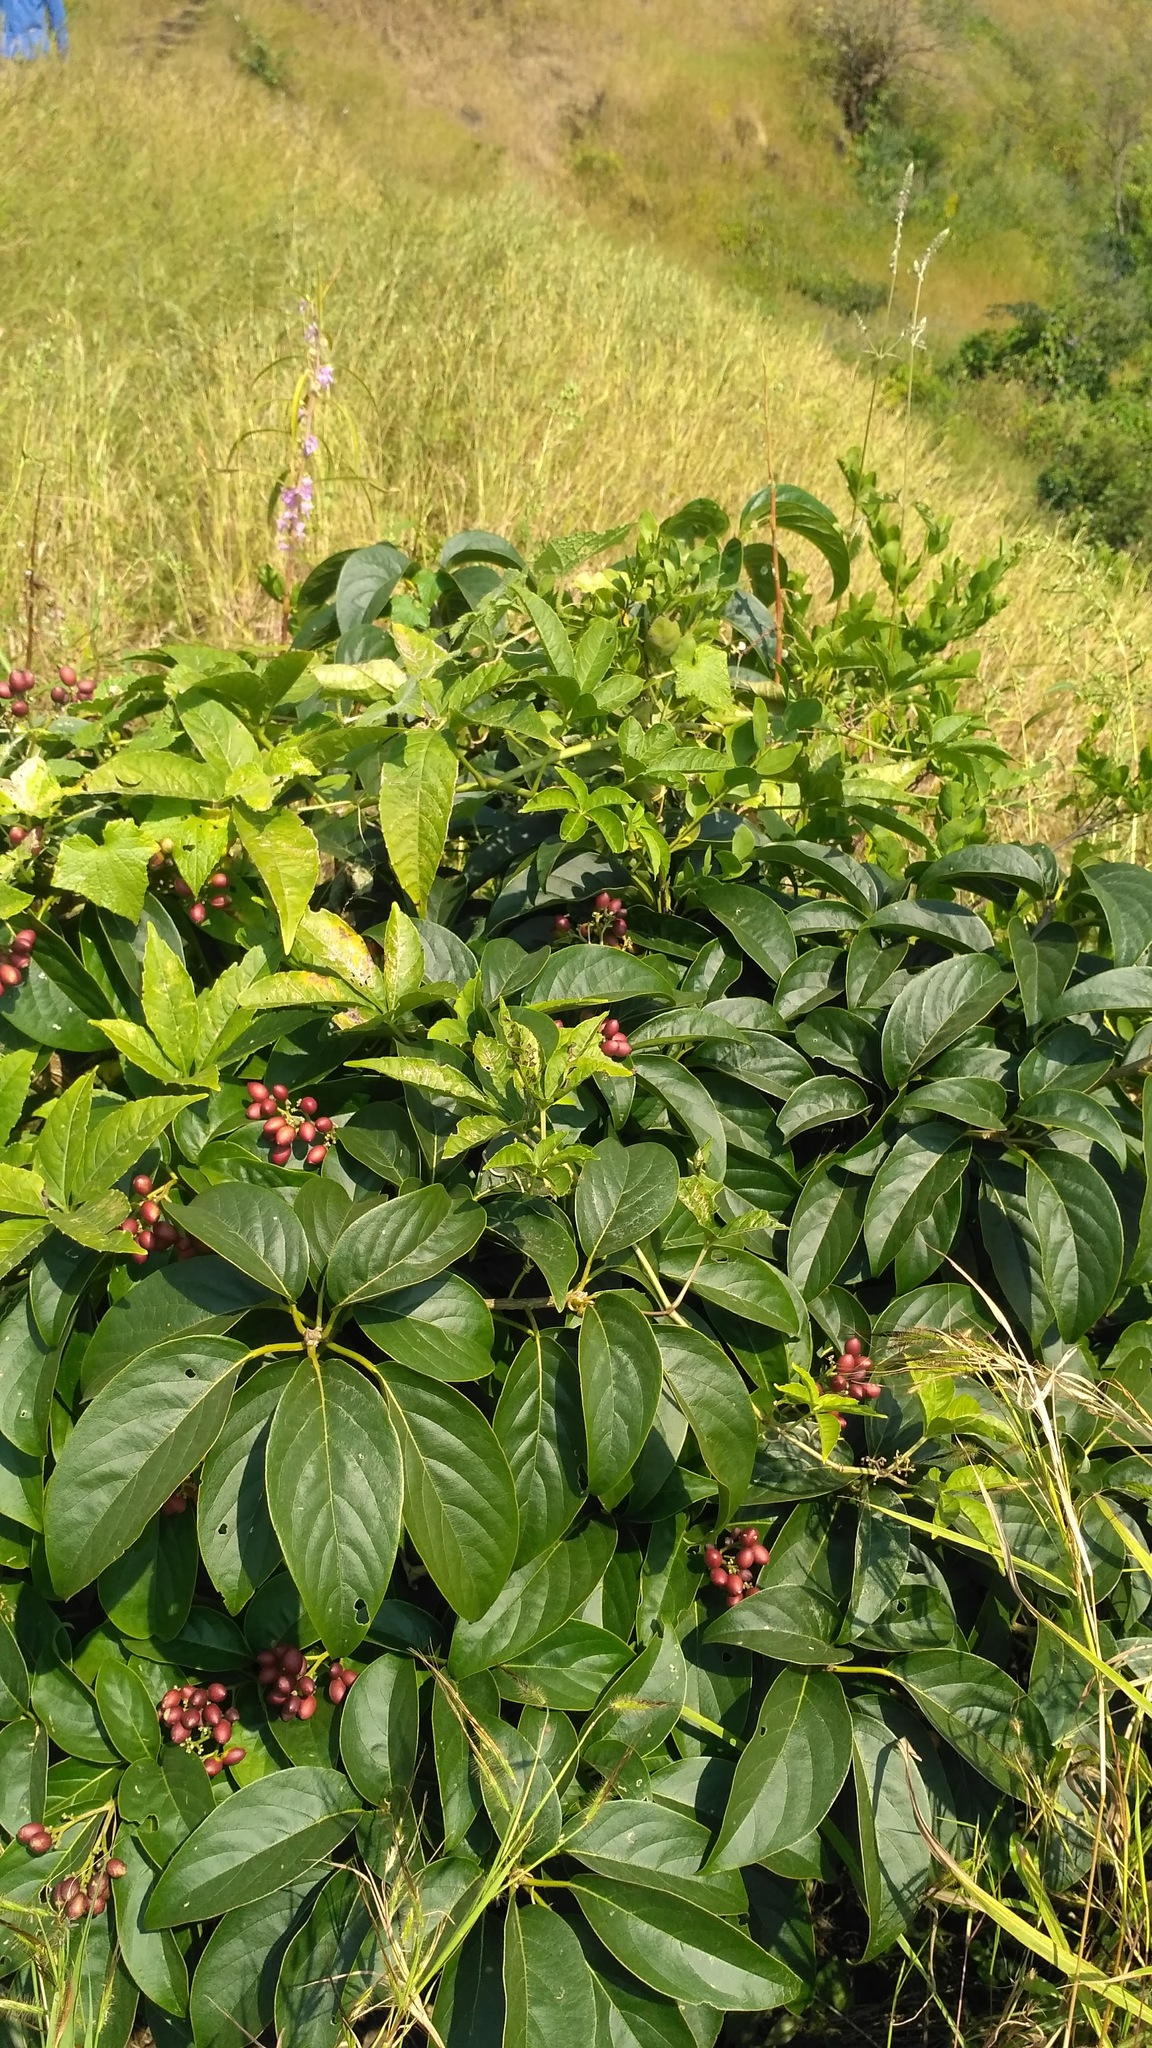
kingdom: Plantae
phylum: Tracheophyta
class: Magnoliopsida
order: Icacinales
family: Icacinaceae
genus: Nothapodytes
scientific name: Nothapodytes nimmoniana
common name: Nothapodytes
